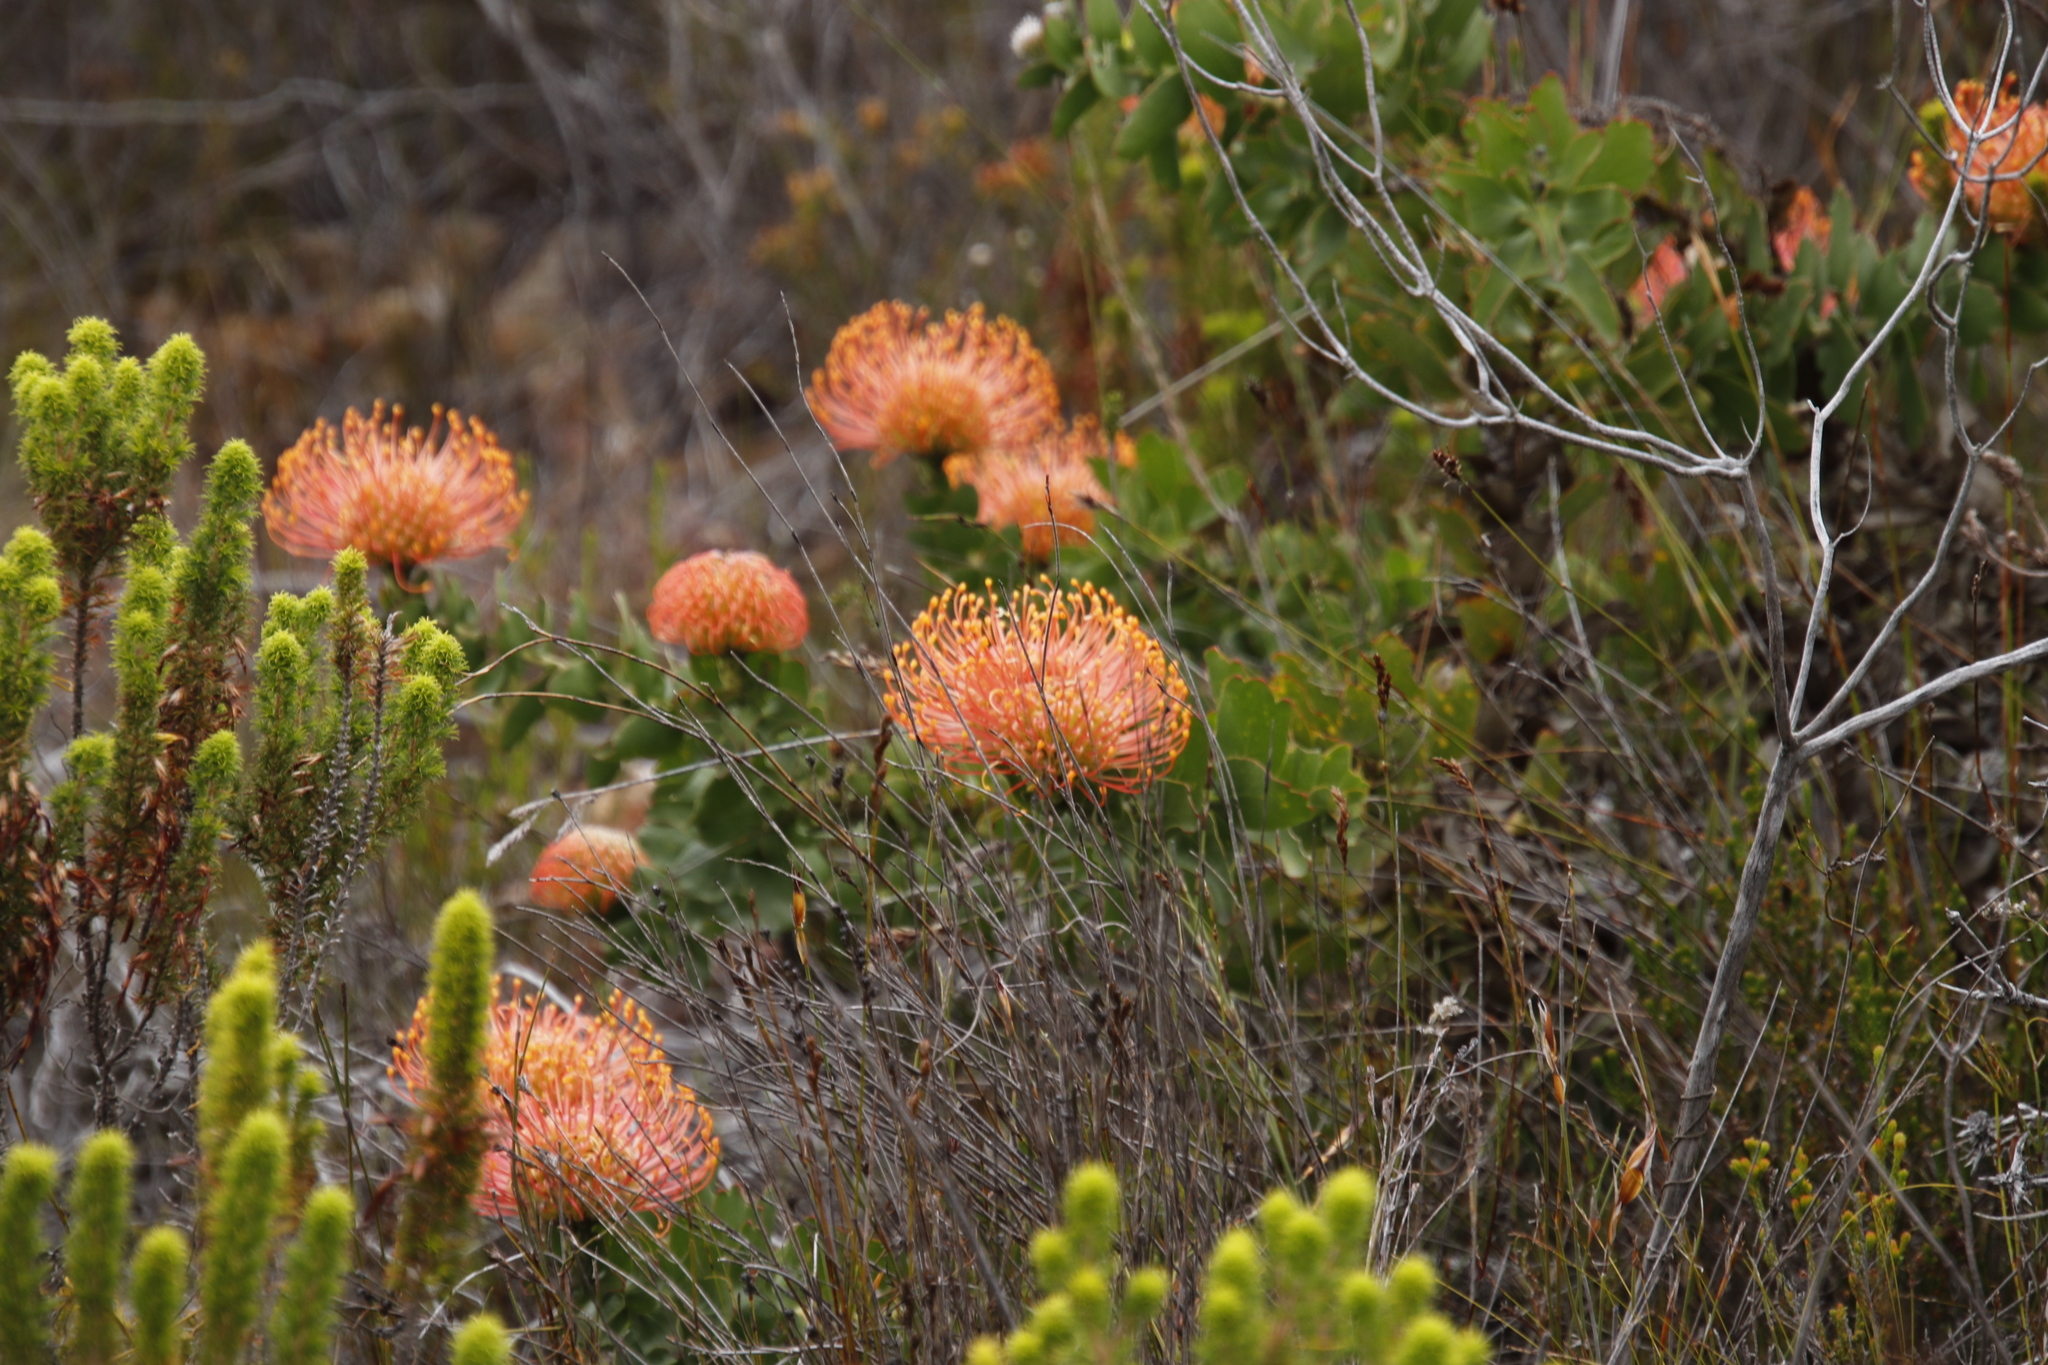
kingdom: Plantae
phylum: Tracheophyta
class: Magnoliopsida
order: Proteales
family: Proteaceae
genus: Leucospermum
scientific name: Leucospermum cordifolium
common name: Red pincushion-protea
